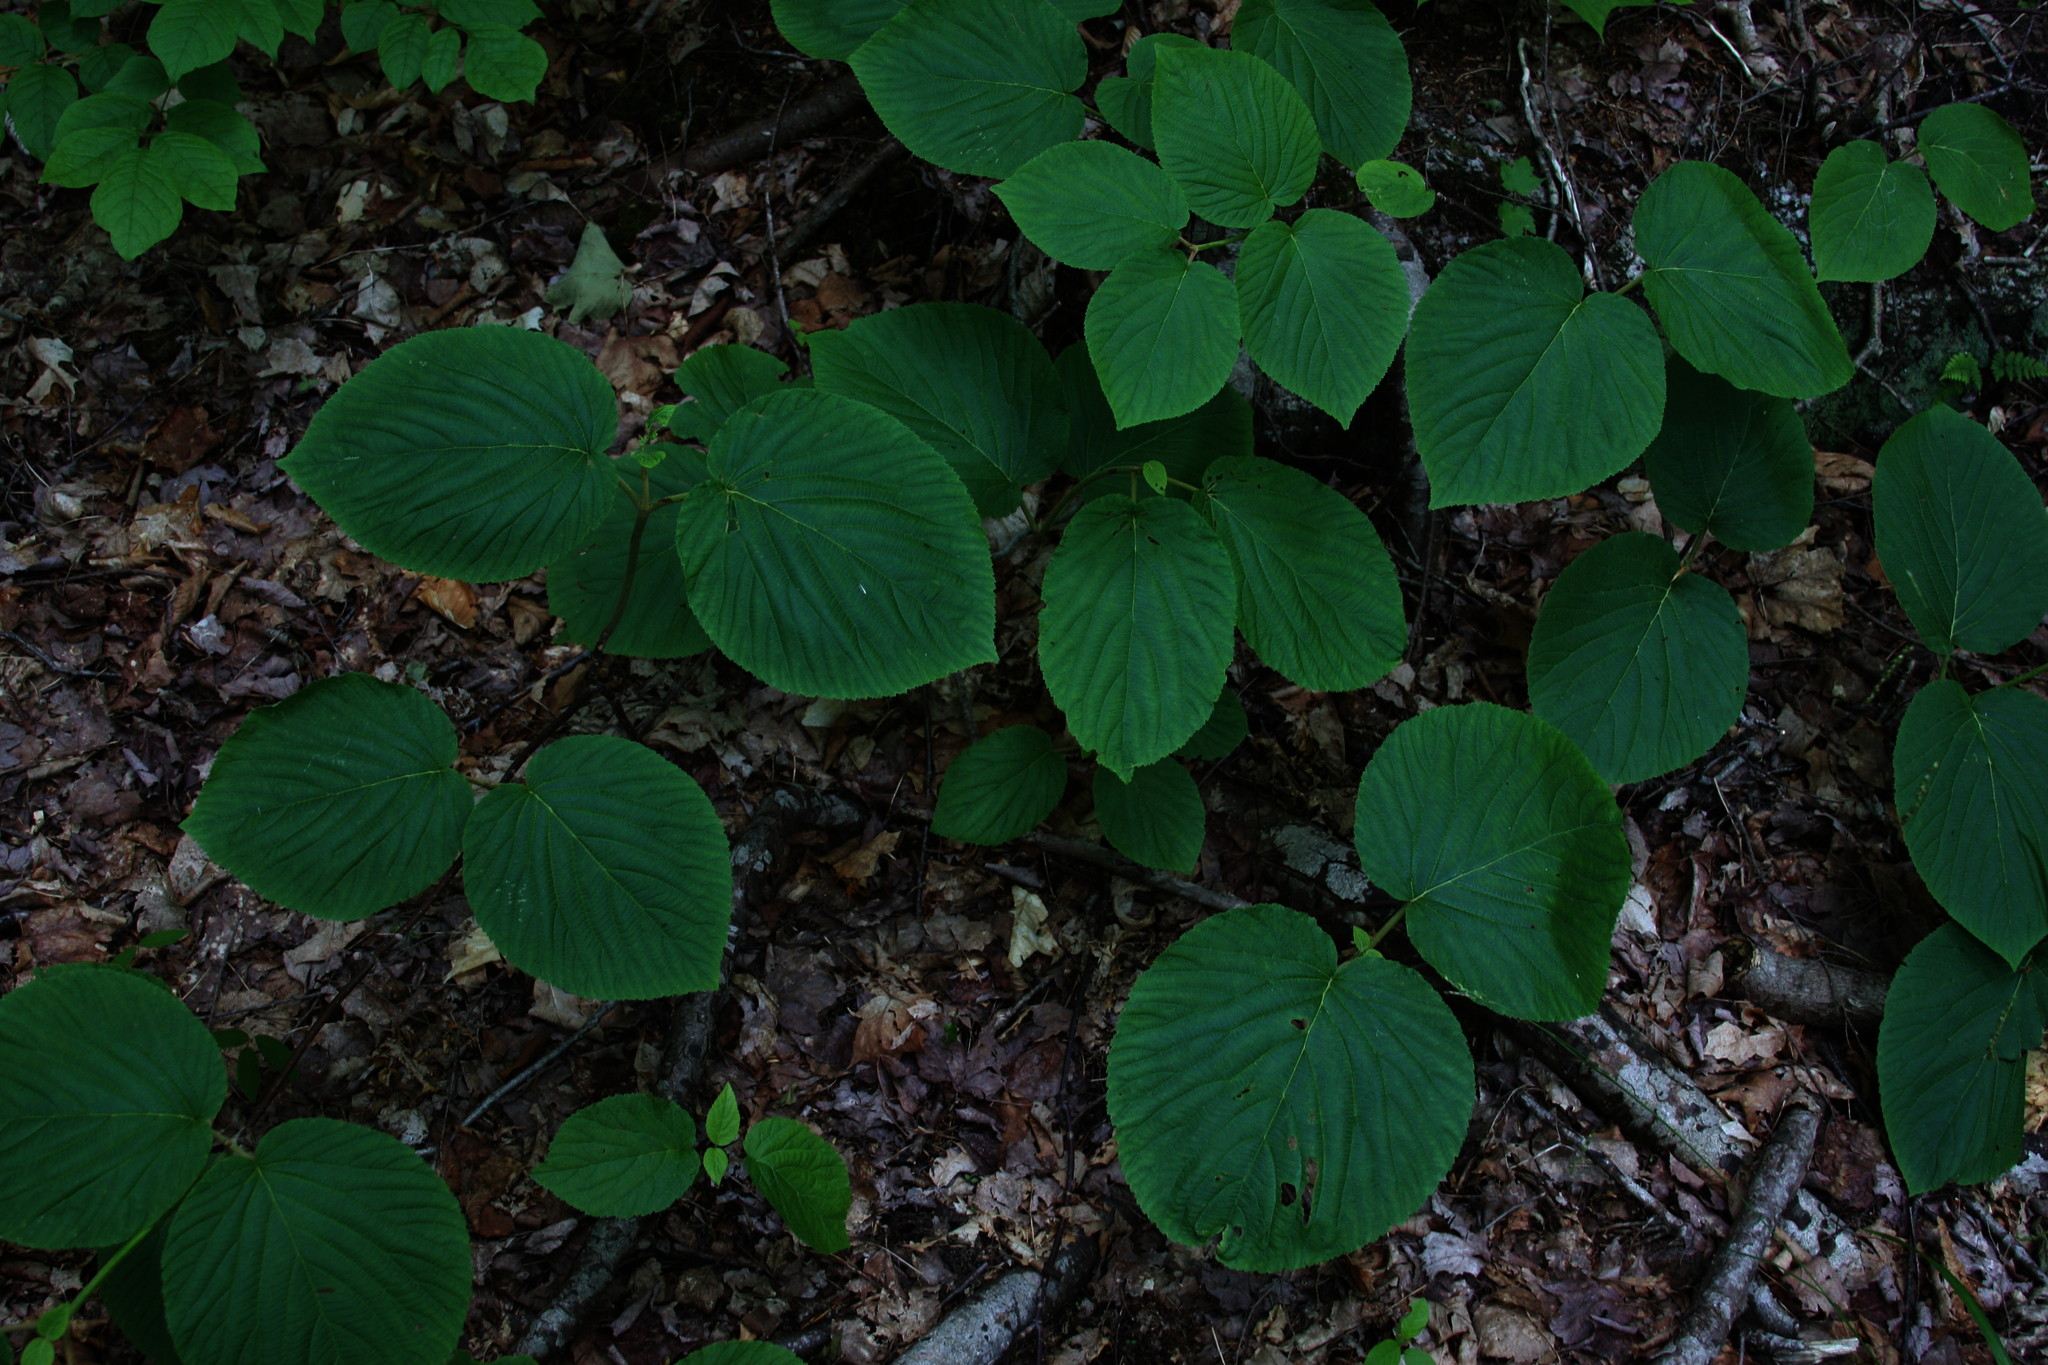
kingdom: Plantae
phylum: Tracheophyta
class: Magnoliopsida
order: Dipsacales
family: Viburnaceae
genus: Viburnum
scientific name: Viburnum lantanoides
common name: Hobblebush
